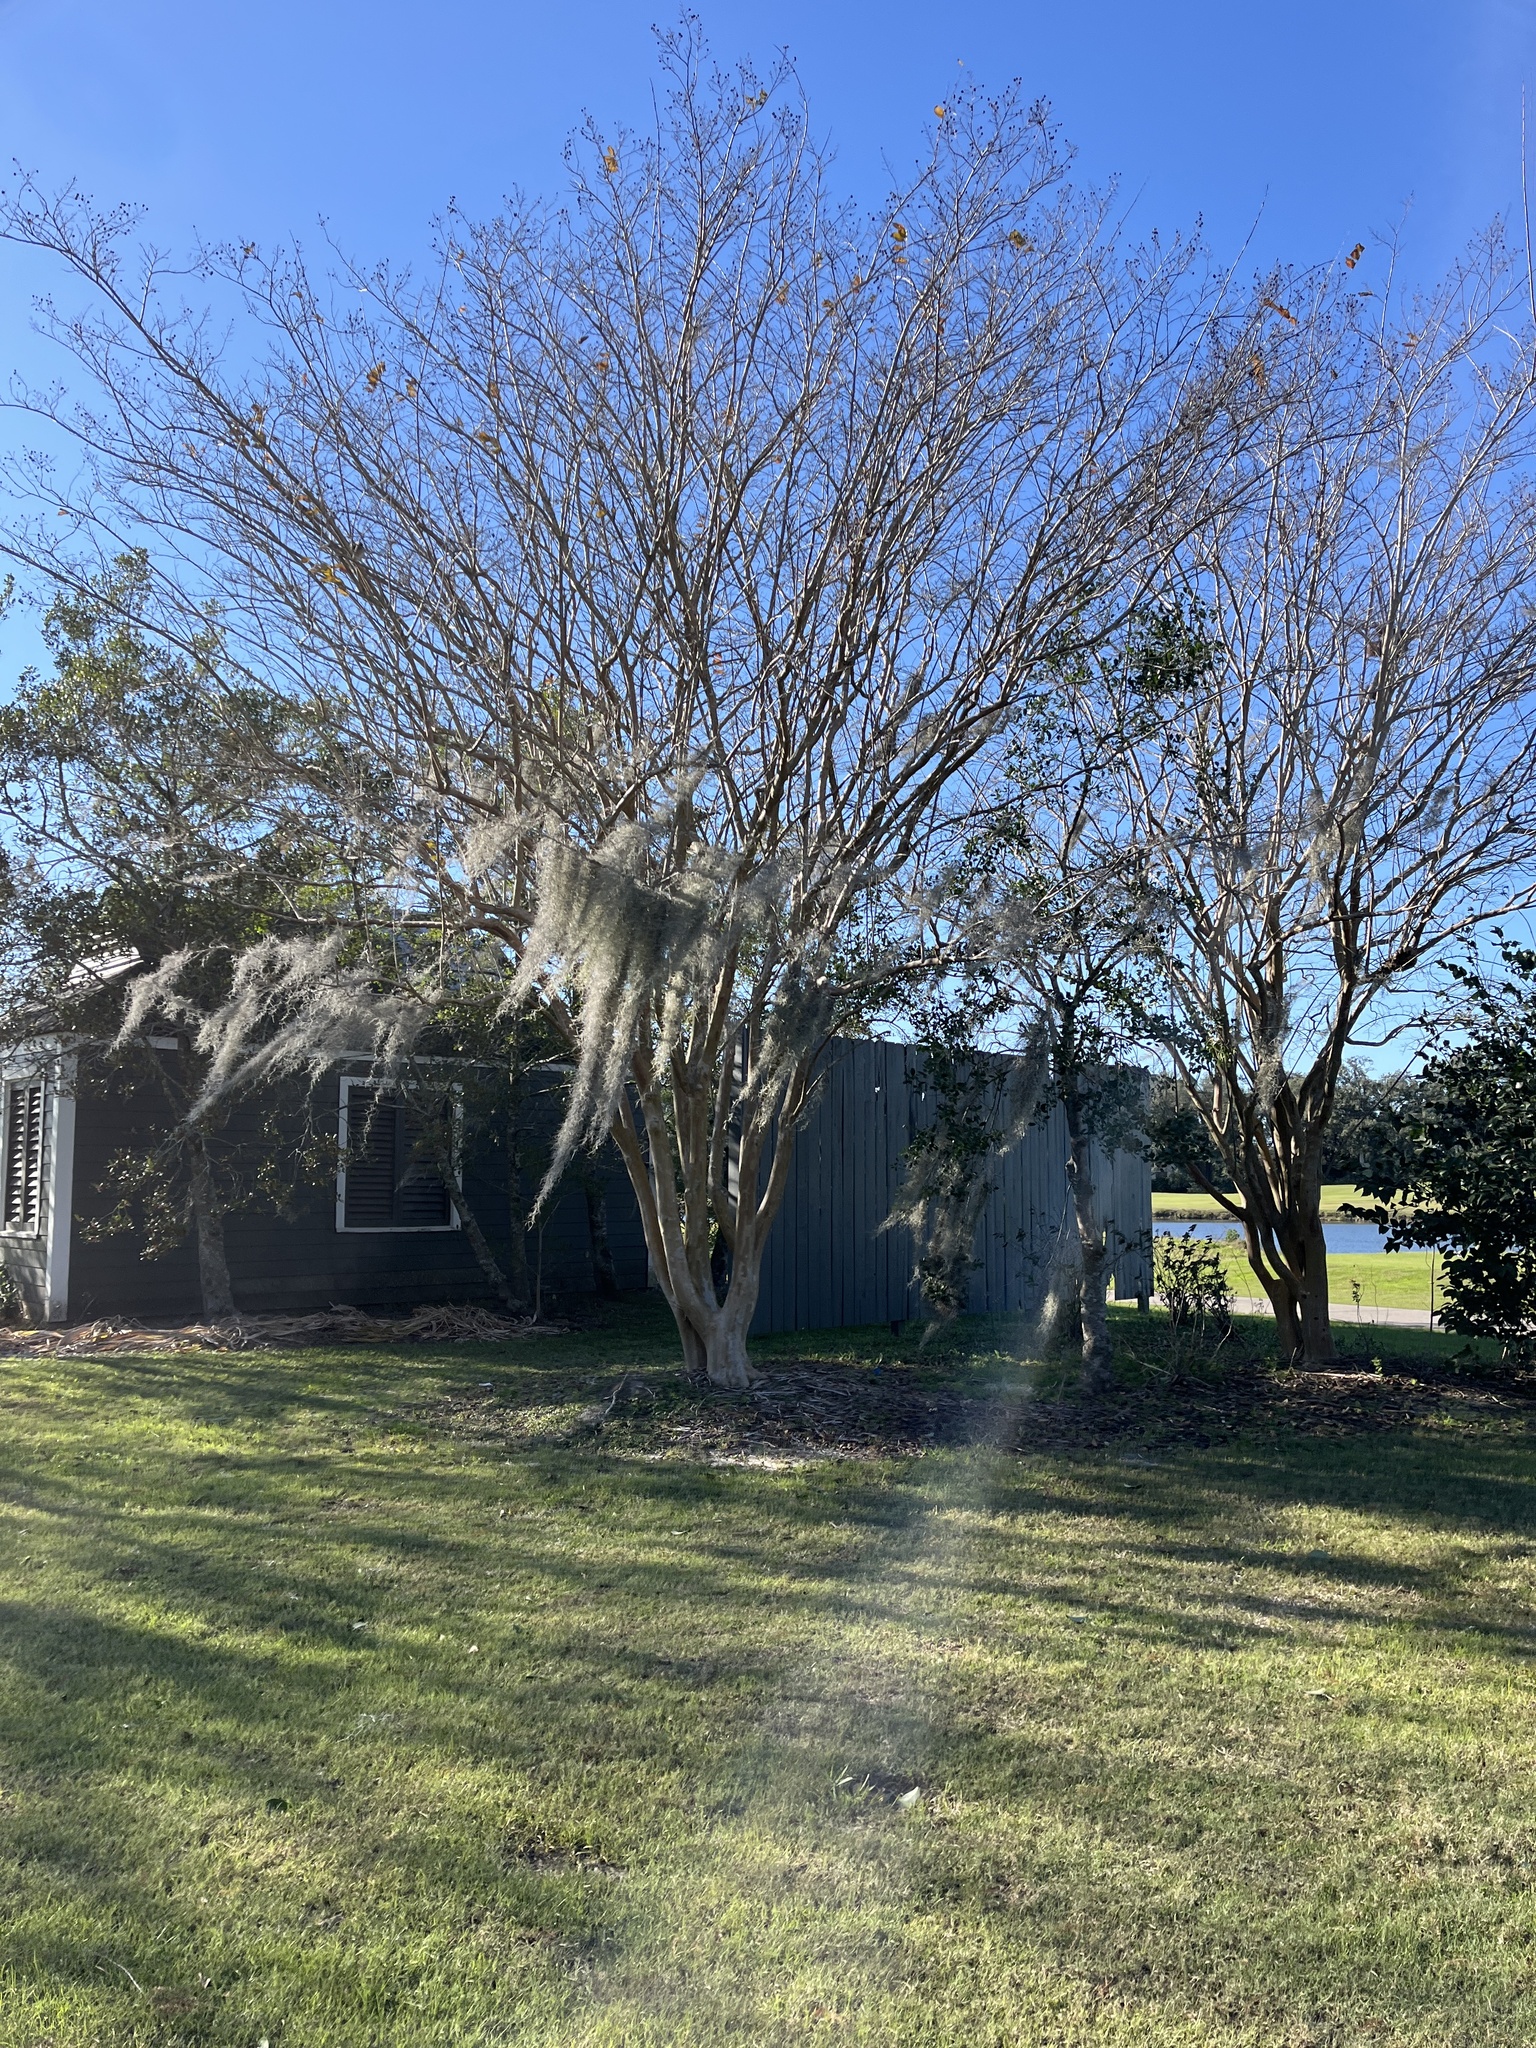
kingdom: Plantae
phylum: Tracheophyta
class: Liliopsida
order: Poales
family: Bromeliaceae
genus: Tillandsia
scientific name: Tillandsia usneoides
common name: Spanish moss
